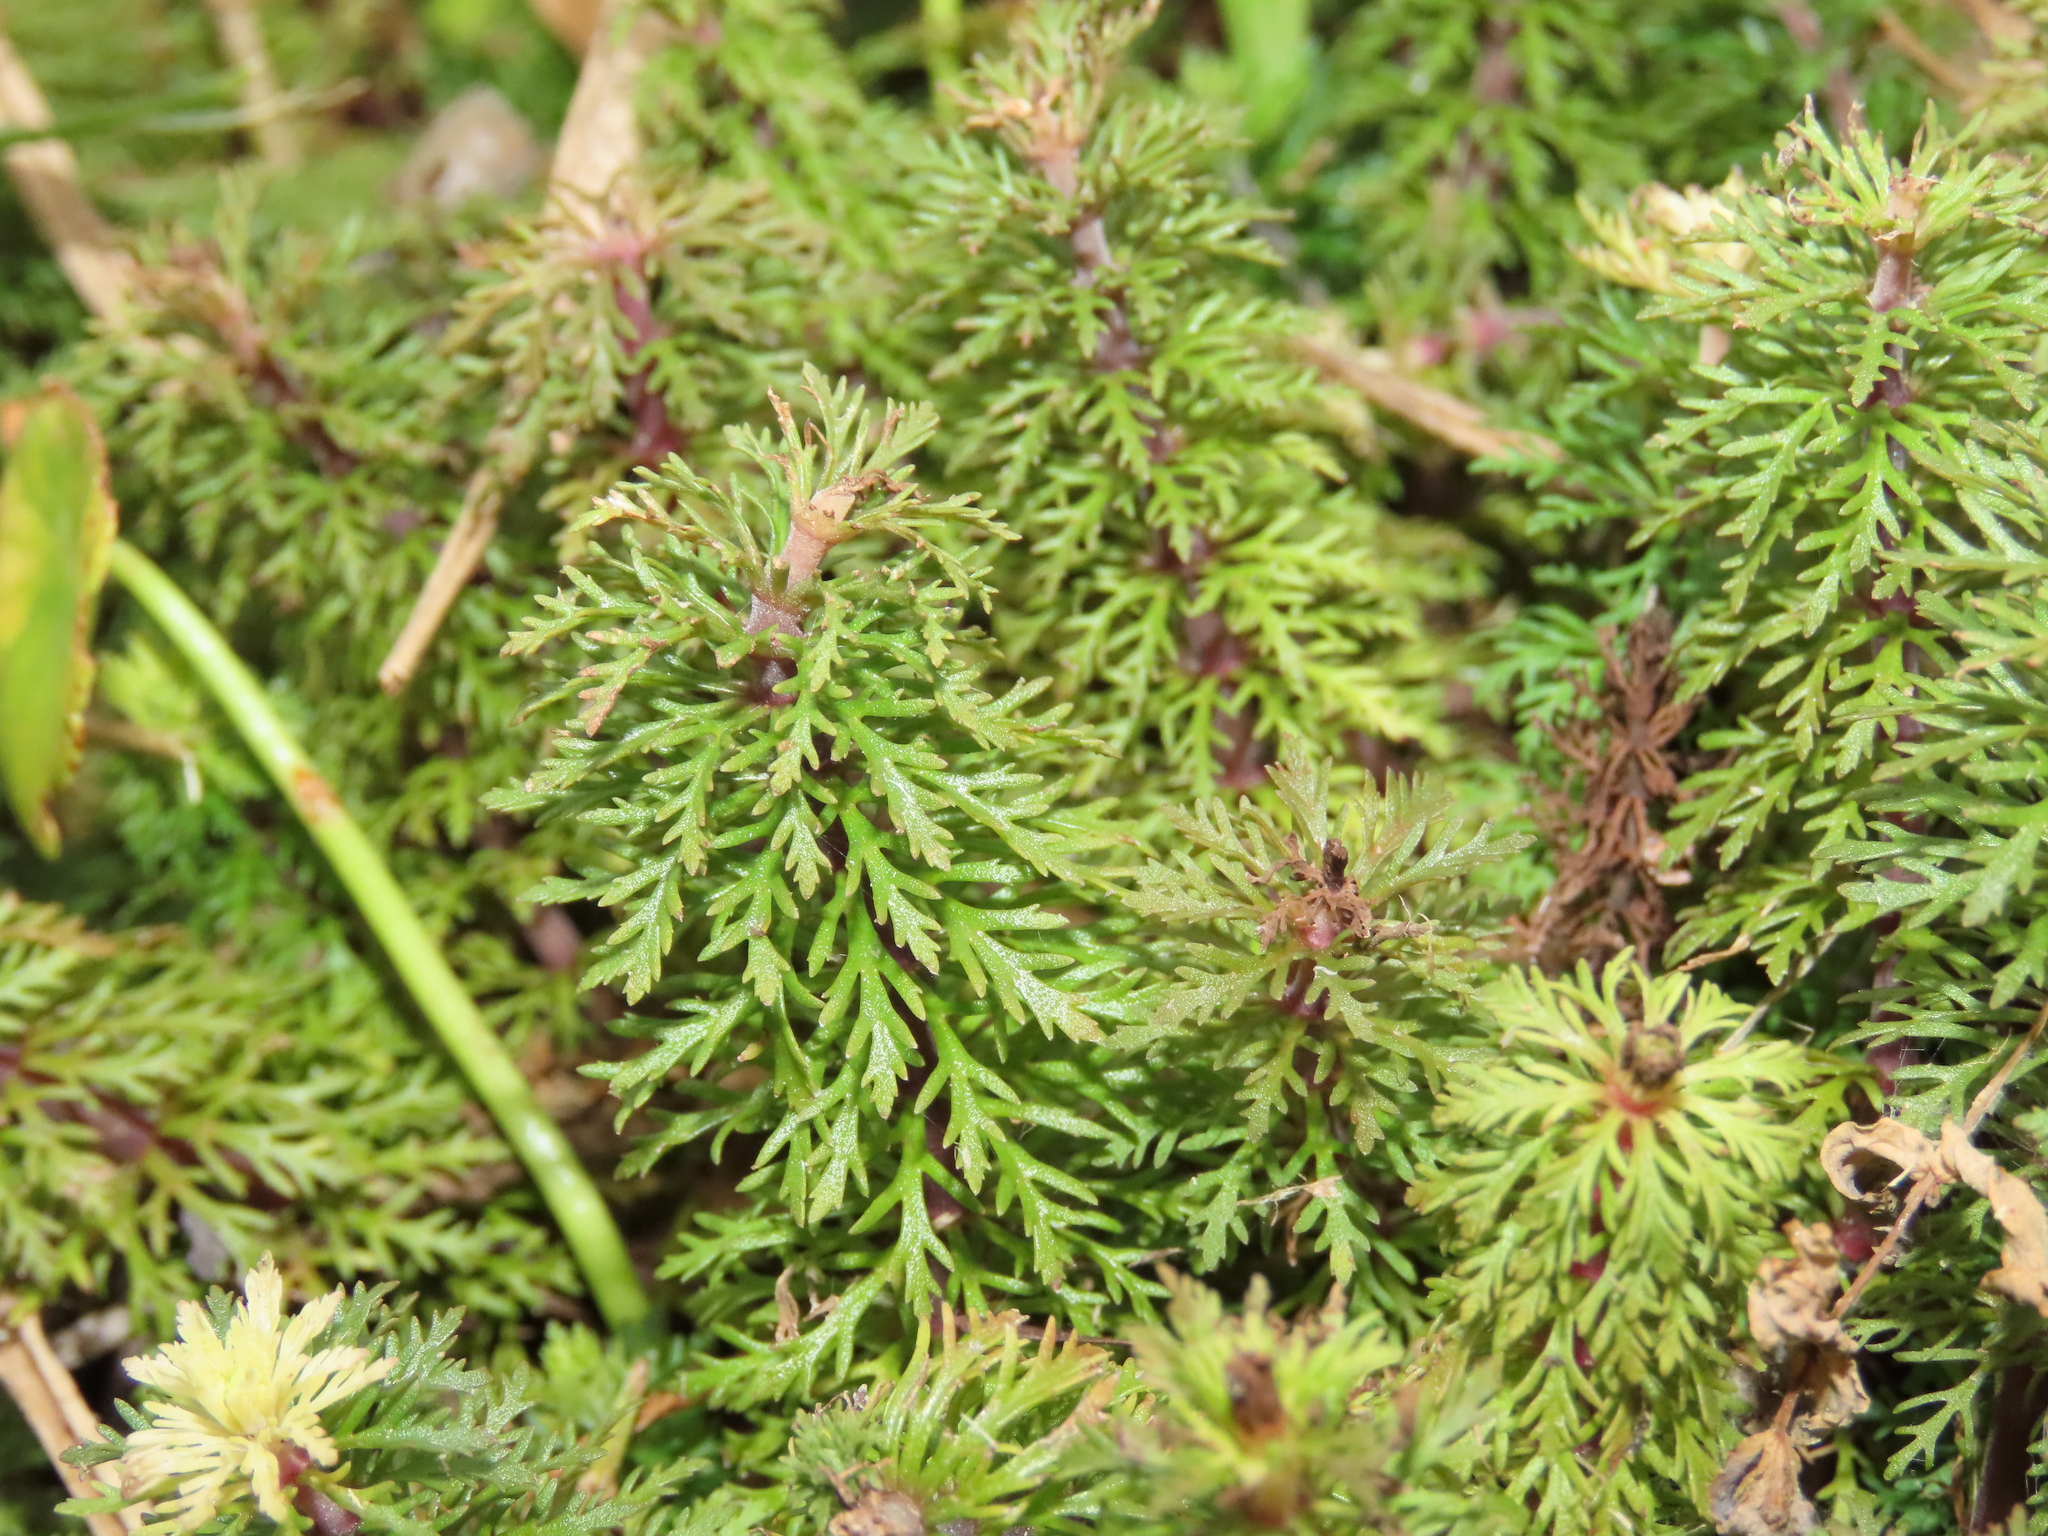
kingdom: Plantae
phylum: Tracheophyta
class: Magnoliopsida
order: Lamiales
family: Plantaginaceae
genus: Limnophila
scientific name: Limnophila sessiliflora
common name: Asian marshweed
